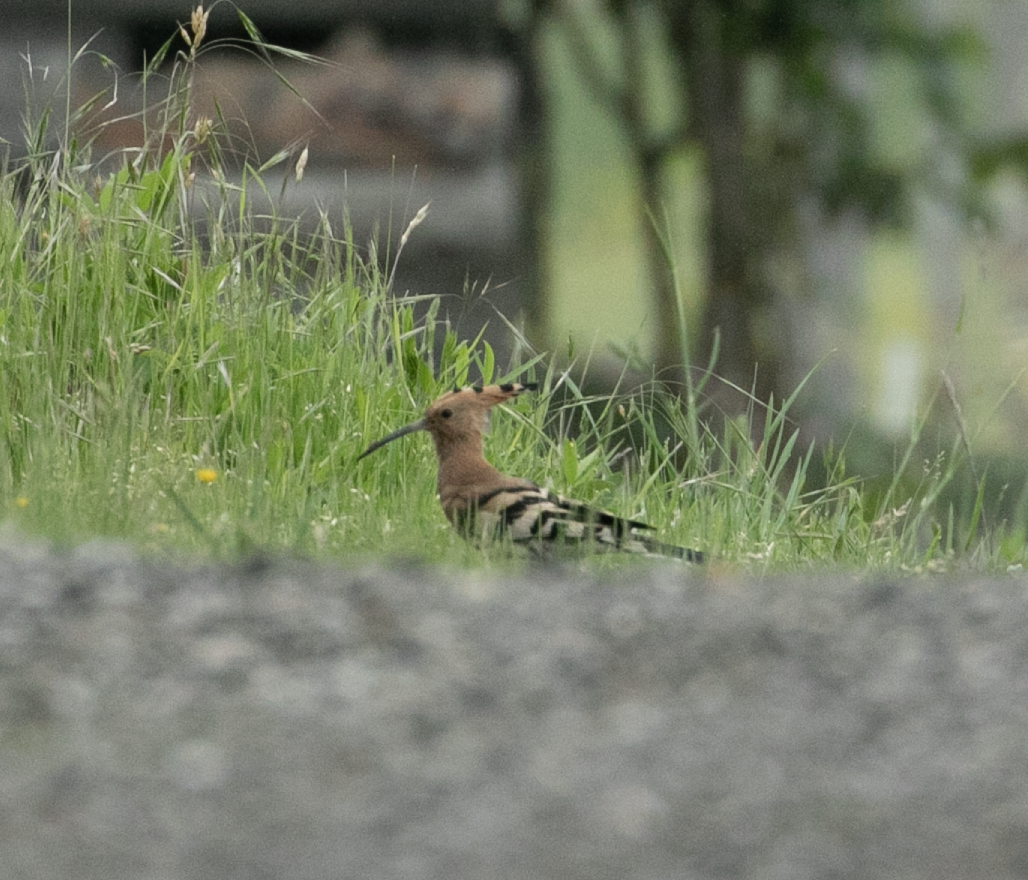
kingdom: Animalia
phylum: Chordata
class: Aves
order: Bucerotiformes
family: Upupidae
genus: Upupa
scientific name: Upupa epops
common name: Eurasian hoopoe
